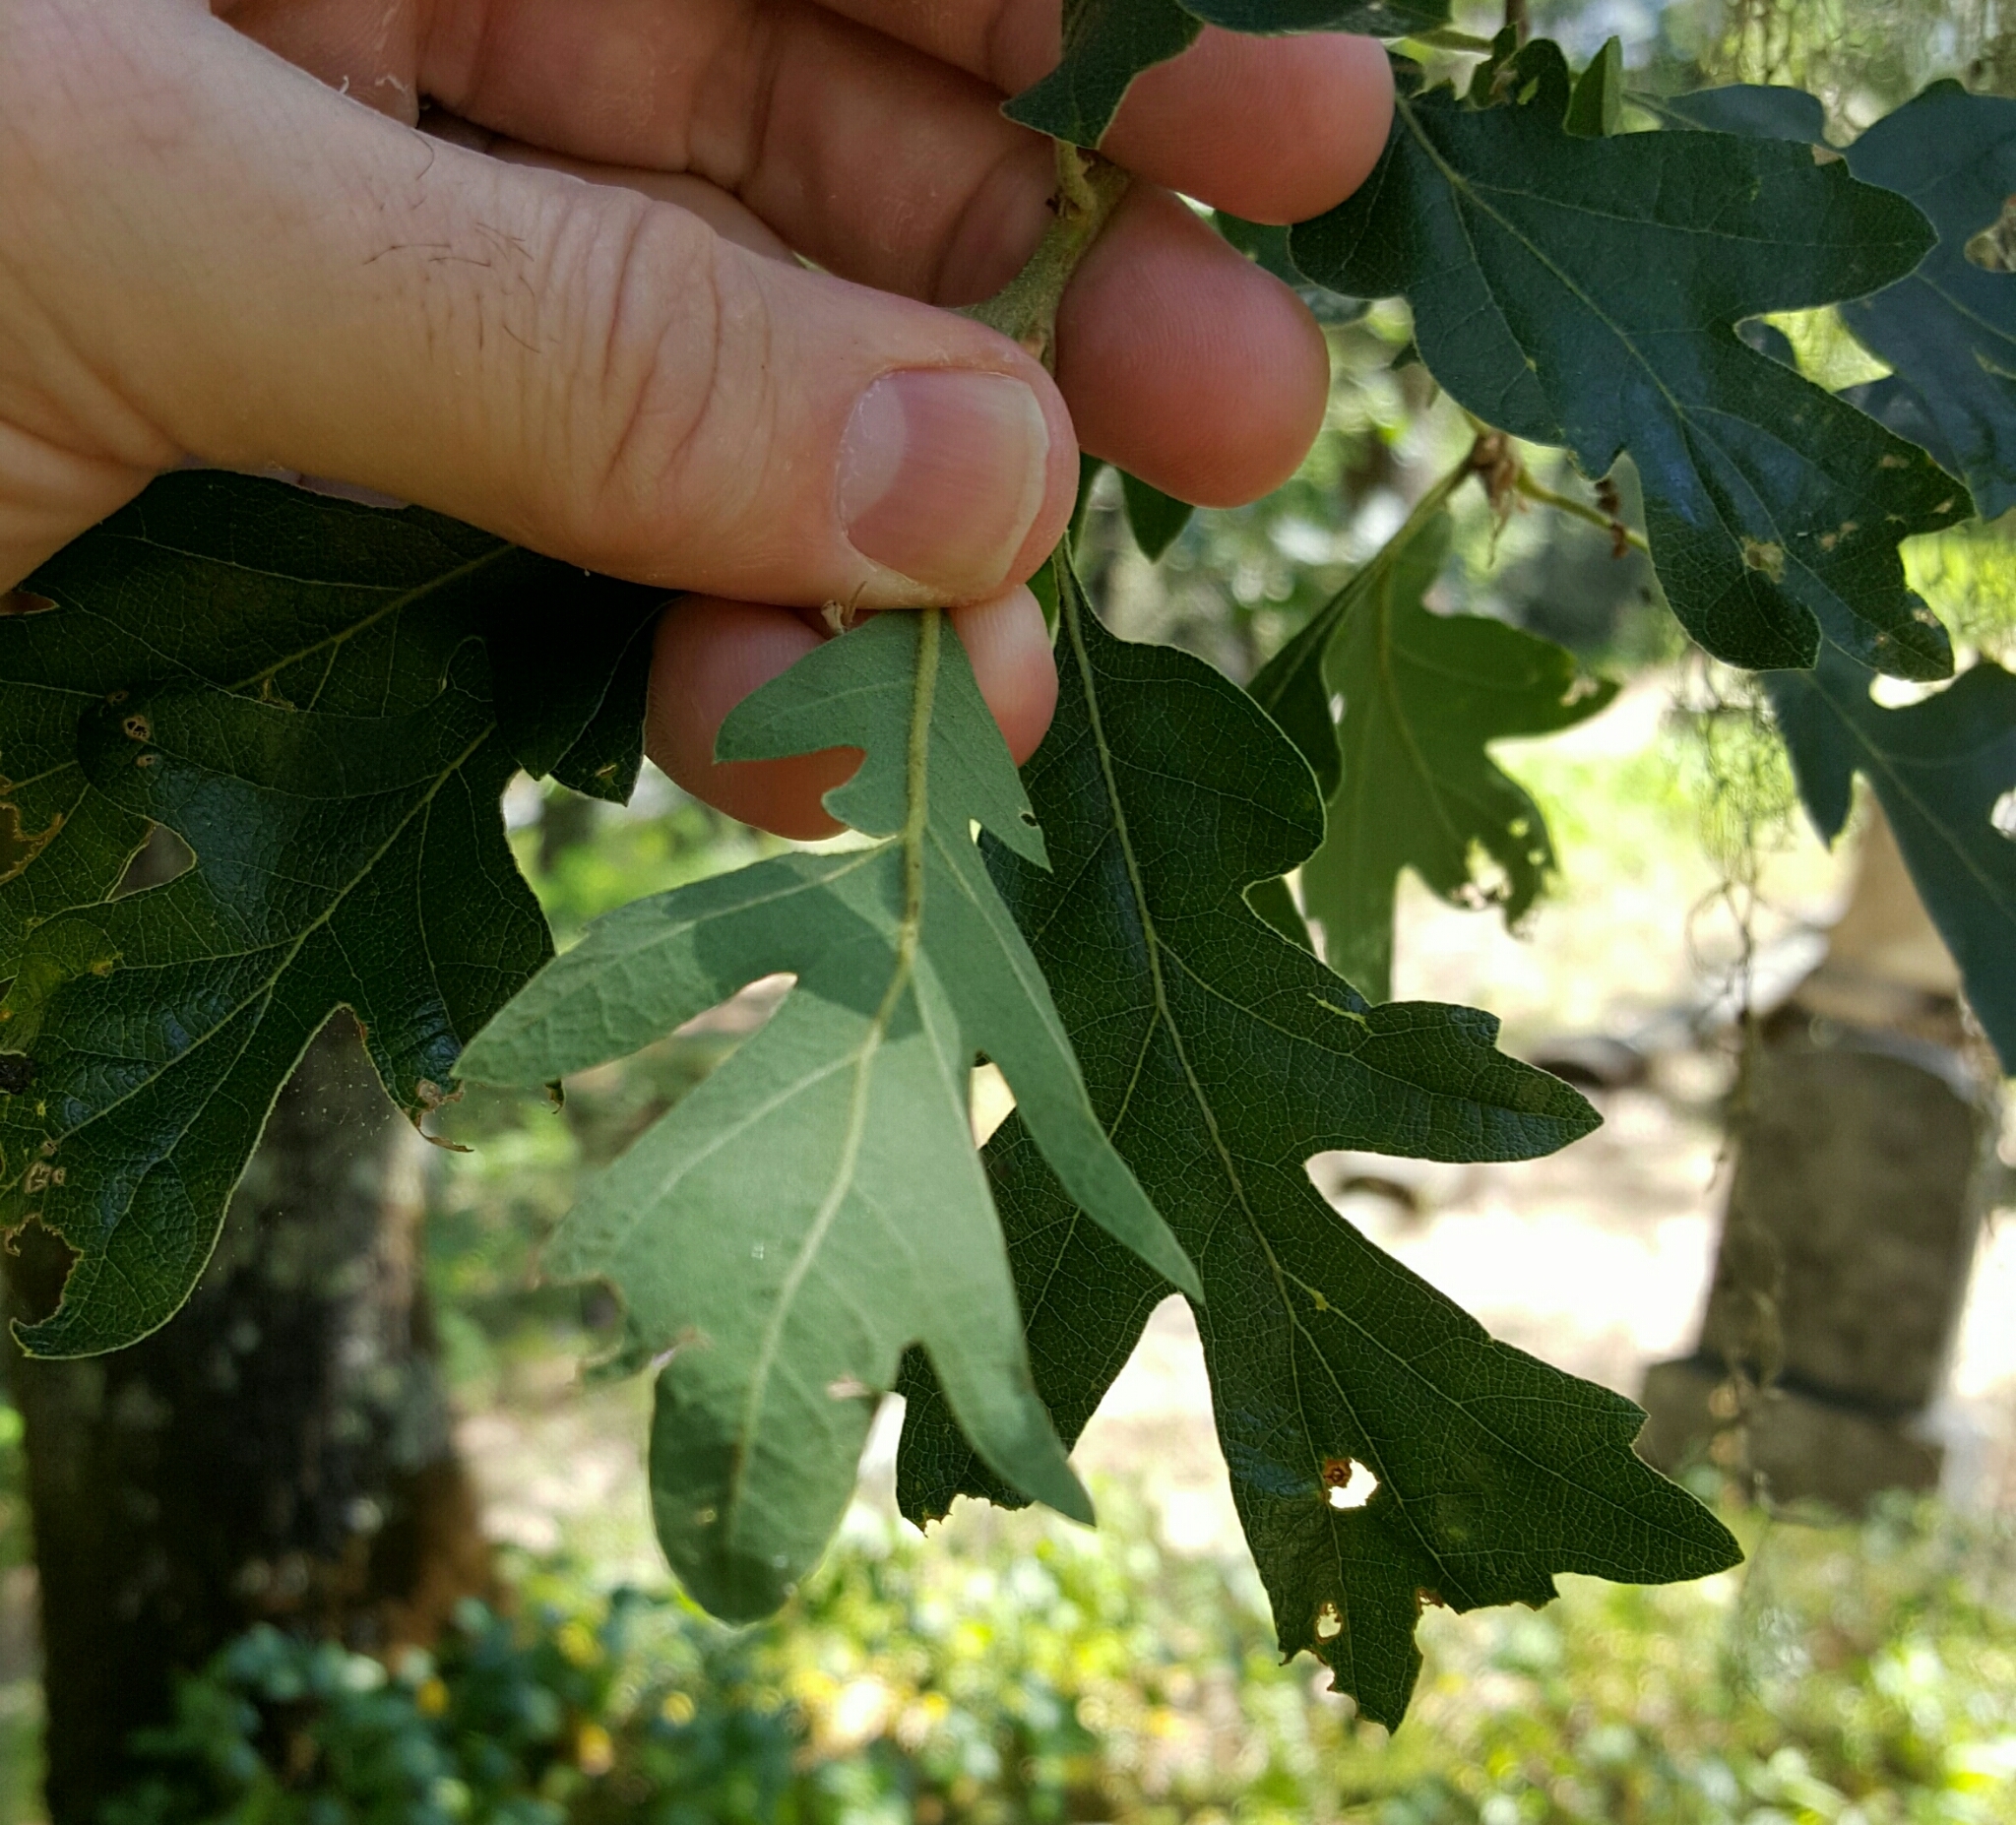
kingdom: Plantae
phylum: Tracheophyta
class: Magnoliopsida
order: Fagales
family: Fagaceae
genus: Quercus
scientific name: Quercus garryana
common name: Garry oak
